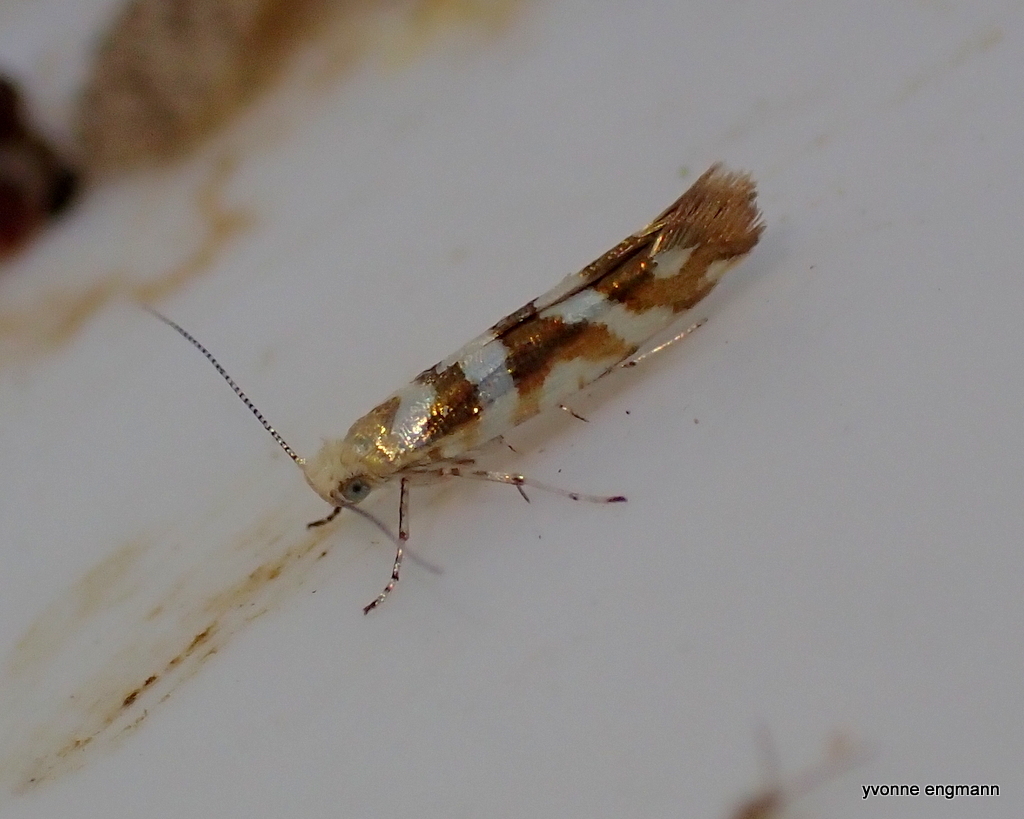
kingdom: Animalia
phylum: Arthropoda
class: Insecta
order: Lepidoptera
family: Argyresthiidae
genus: Argyresthia
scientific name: Argyresthia goedartella
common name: Golden argent
